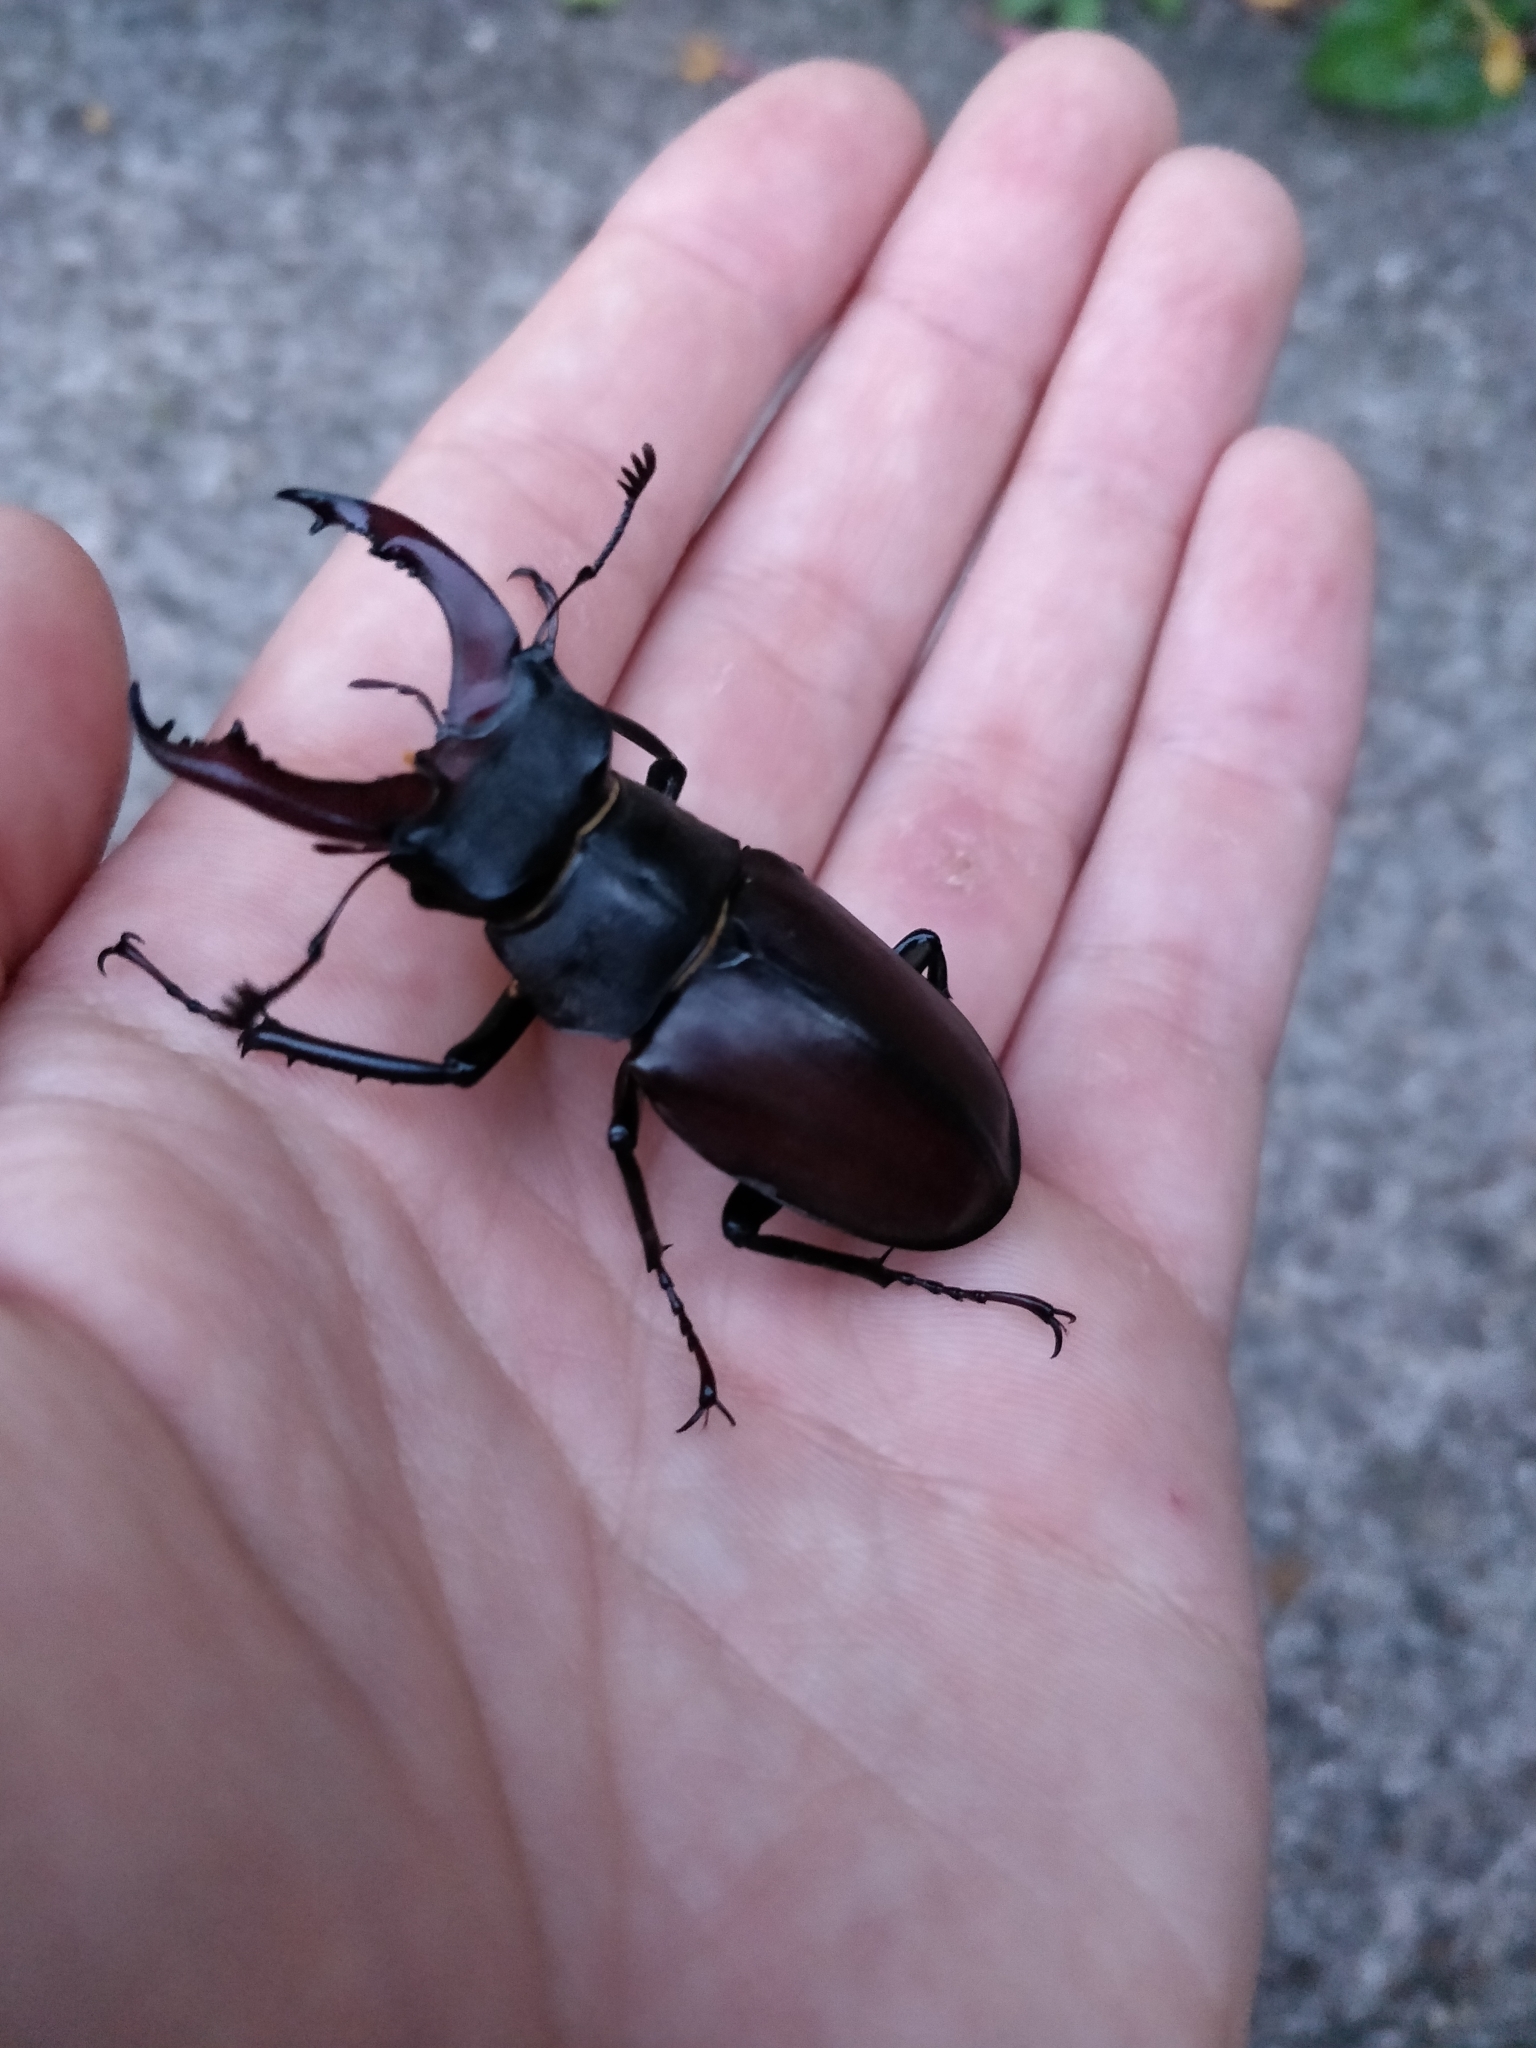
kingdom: Animalia
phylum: Arthropoda
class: Insecta
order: Coleoptera
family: Lucanidae
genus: Lucanus
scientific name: Lucanus cervus
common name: Stag beetle
